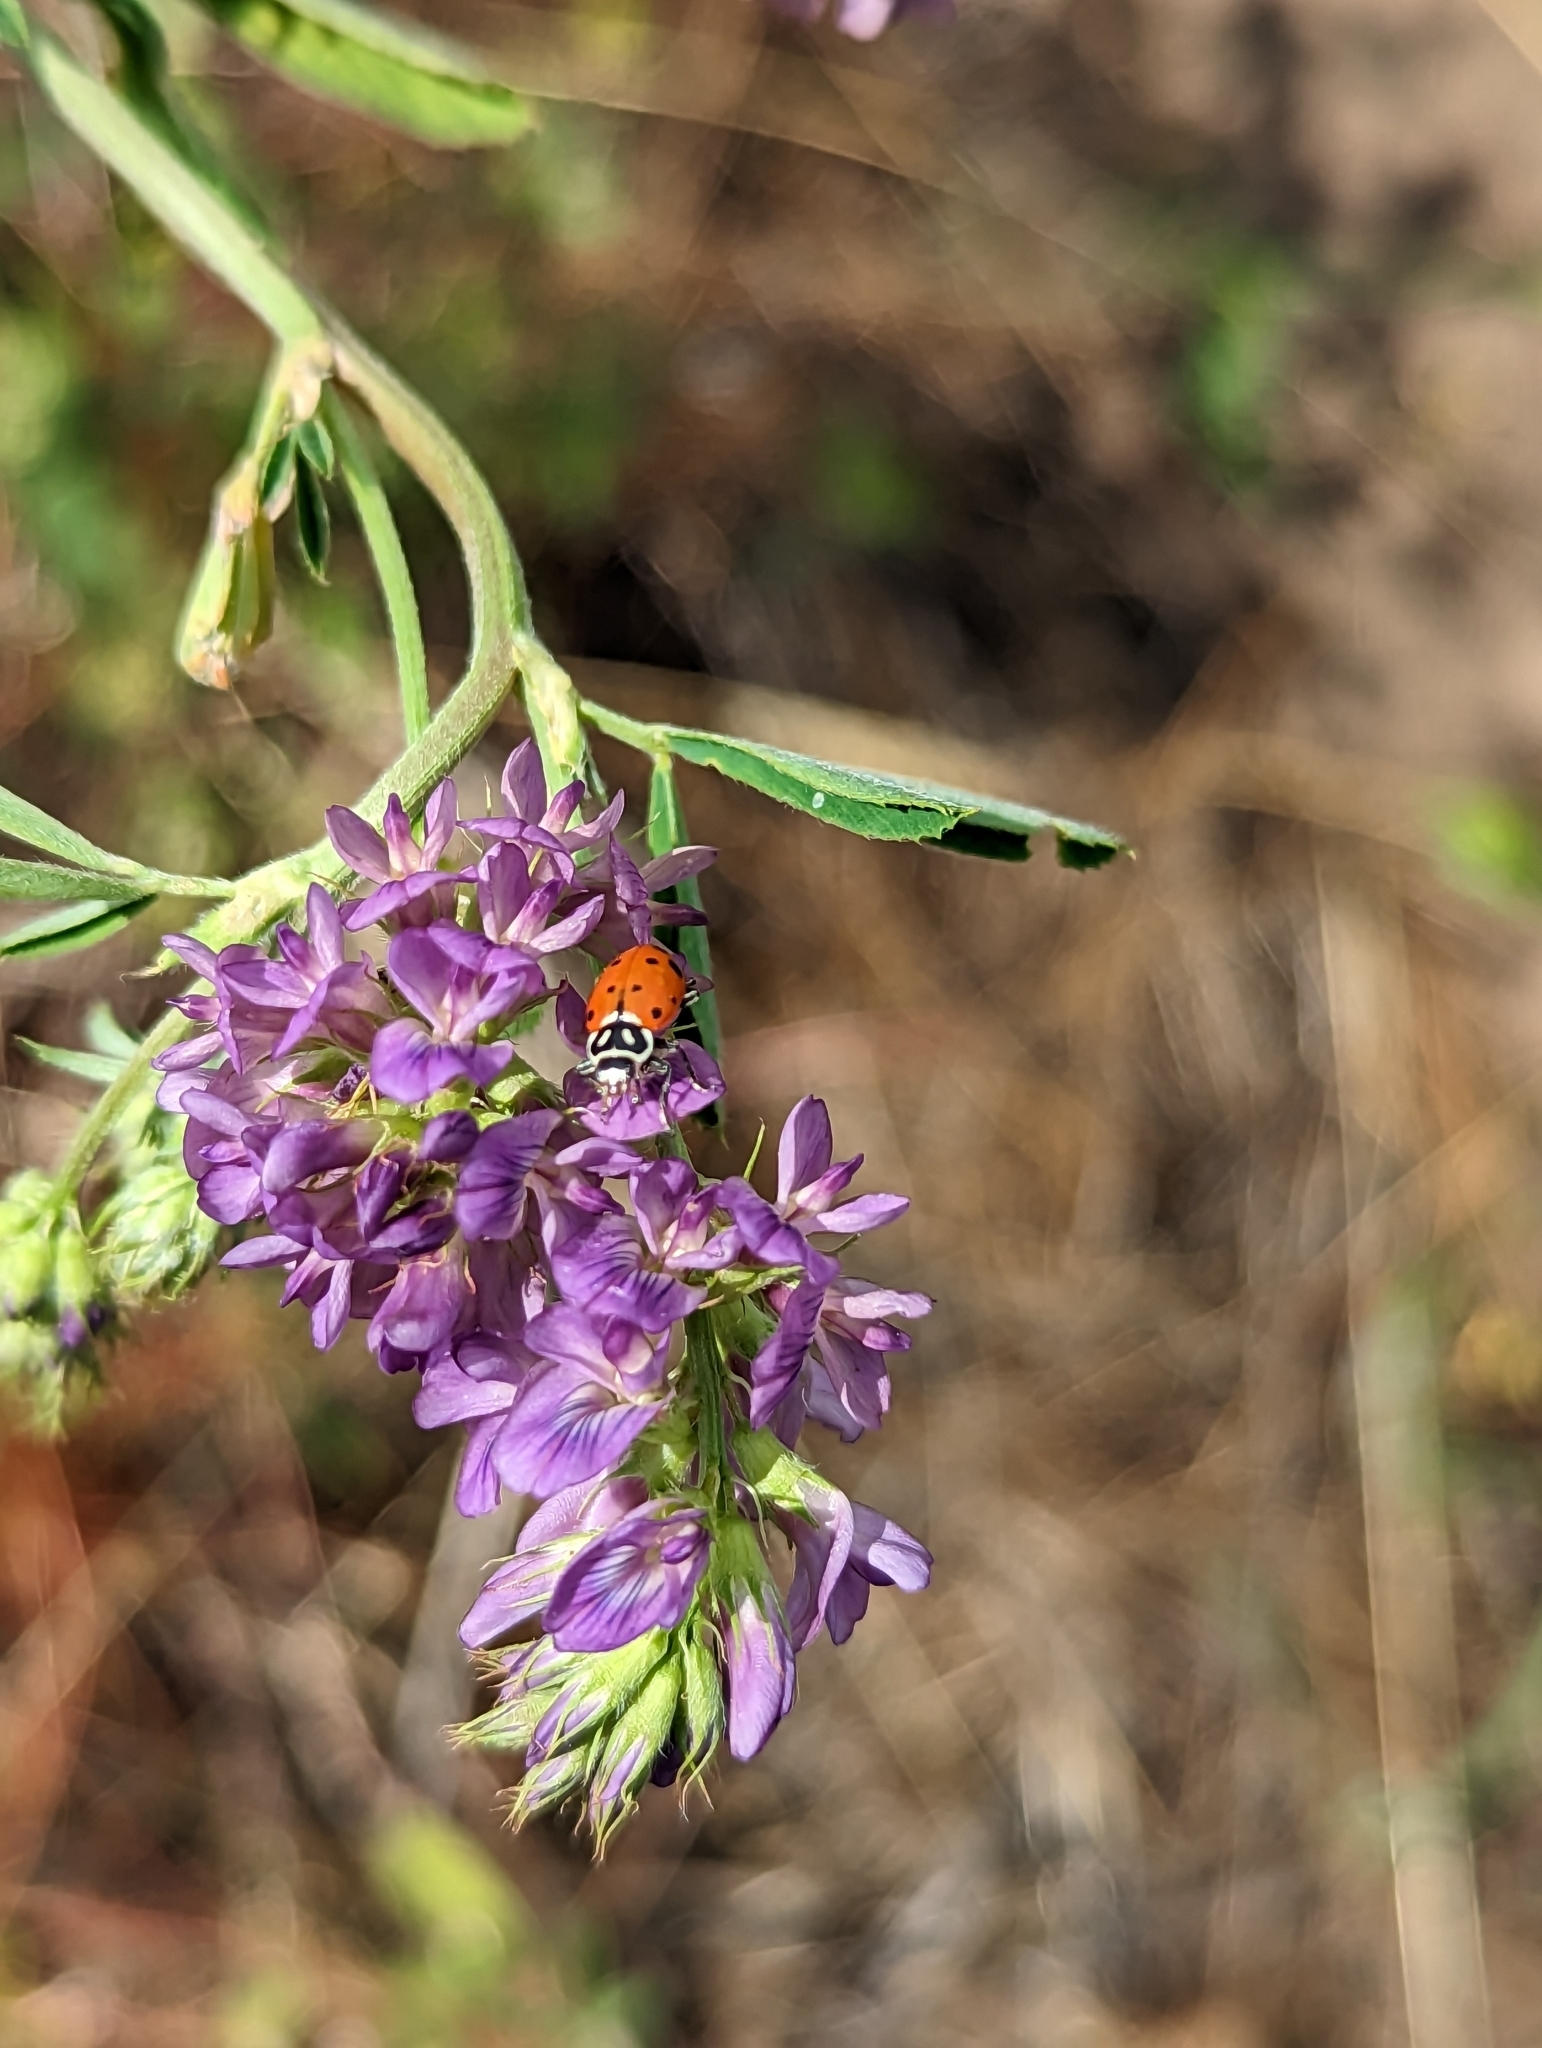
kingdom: Animalia
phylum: Arthropoda
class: Insecta
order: Coleoptera
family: Coccinellidae
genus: Hippodamia
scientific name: Hippodamia convergens
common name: Convergent lady beetle
